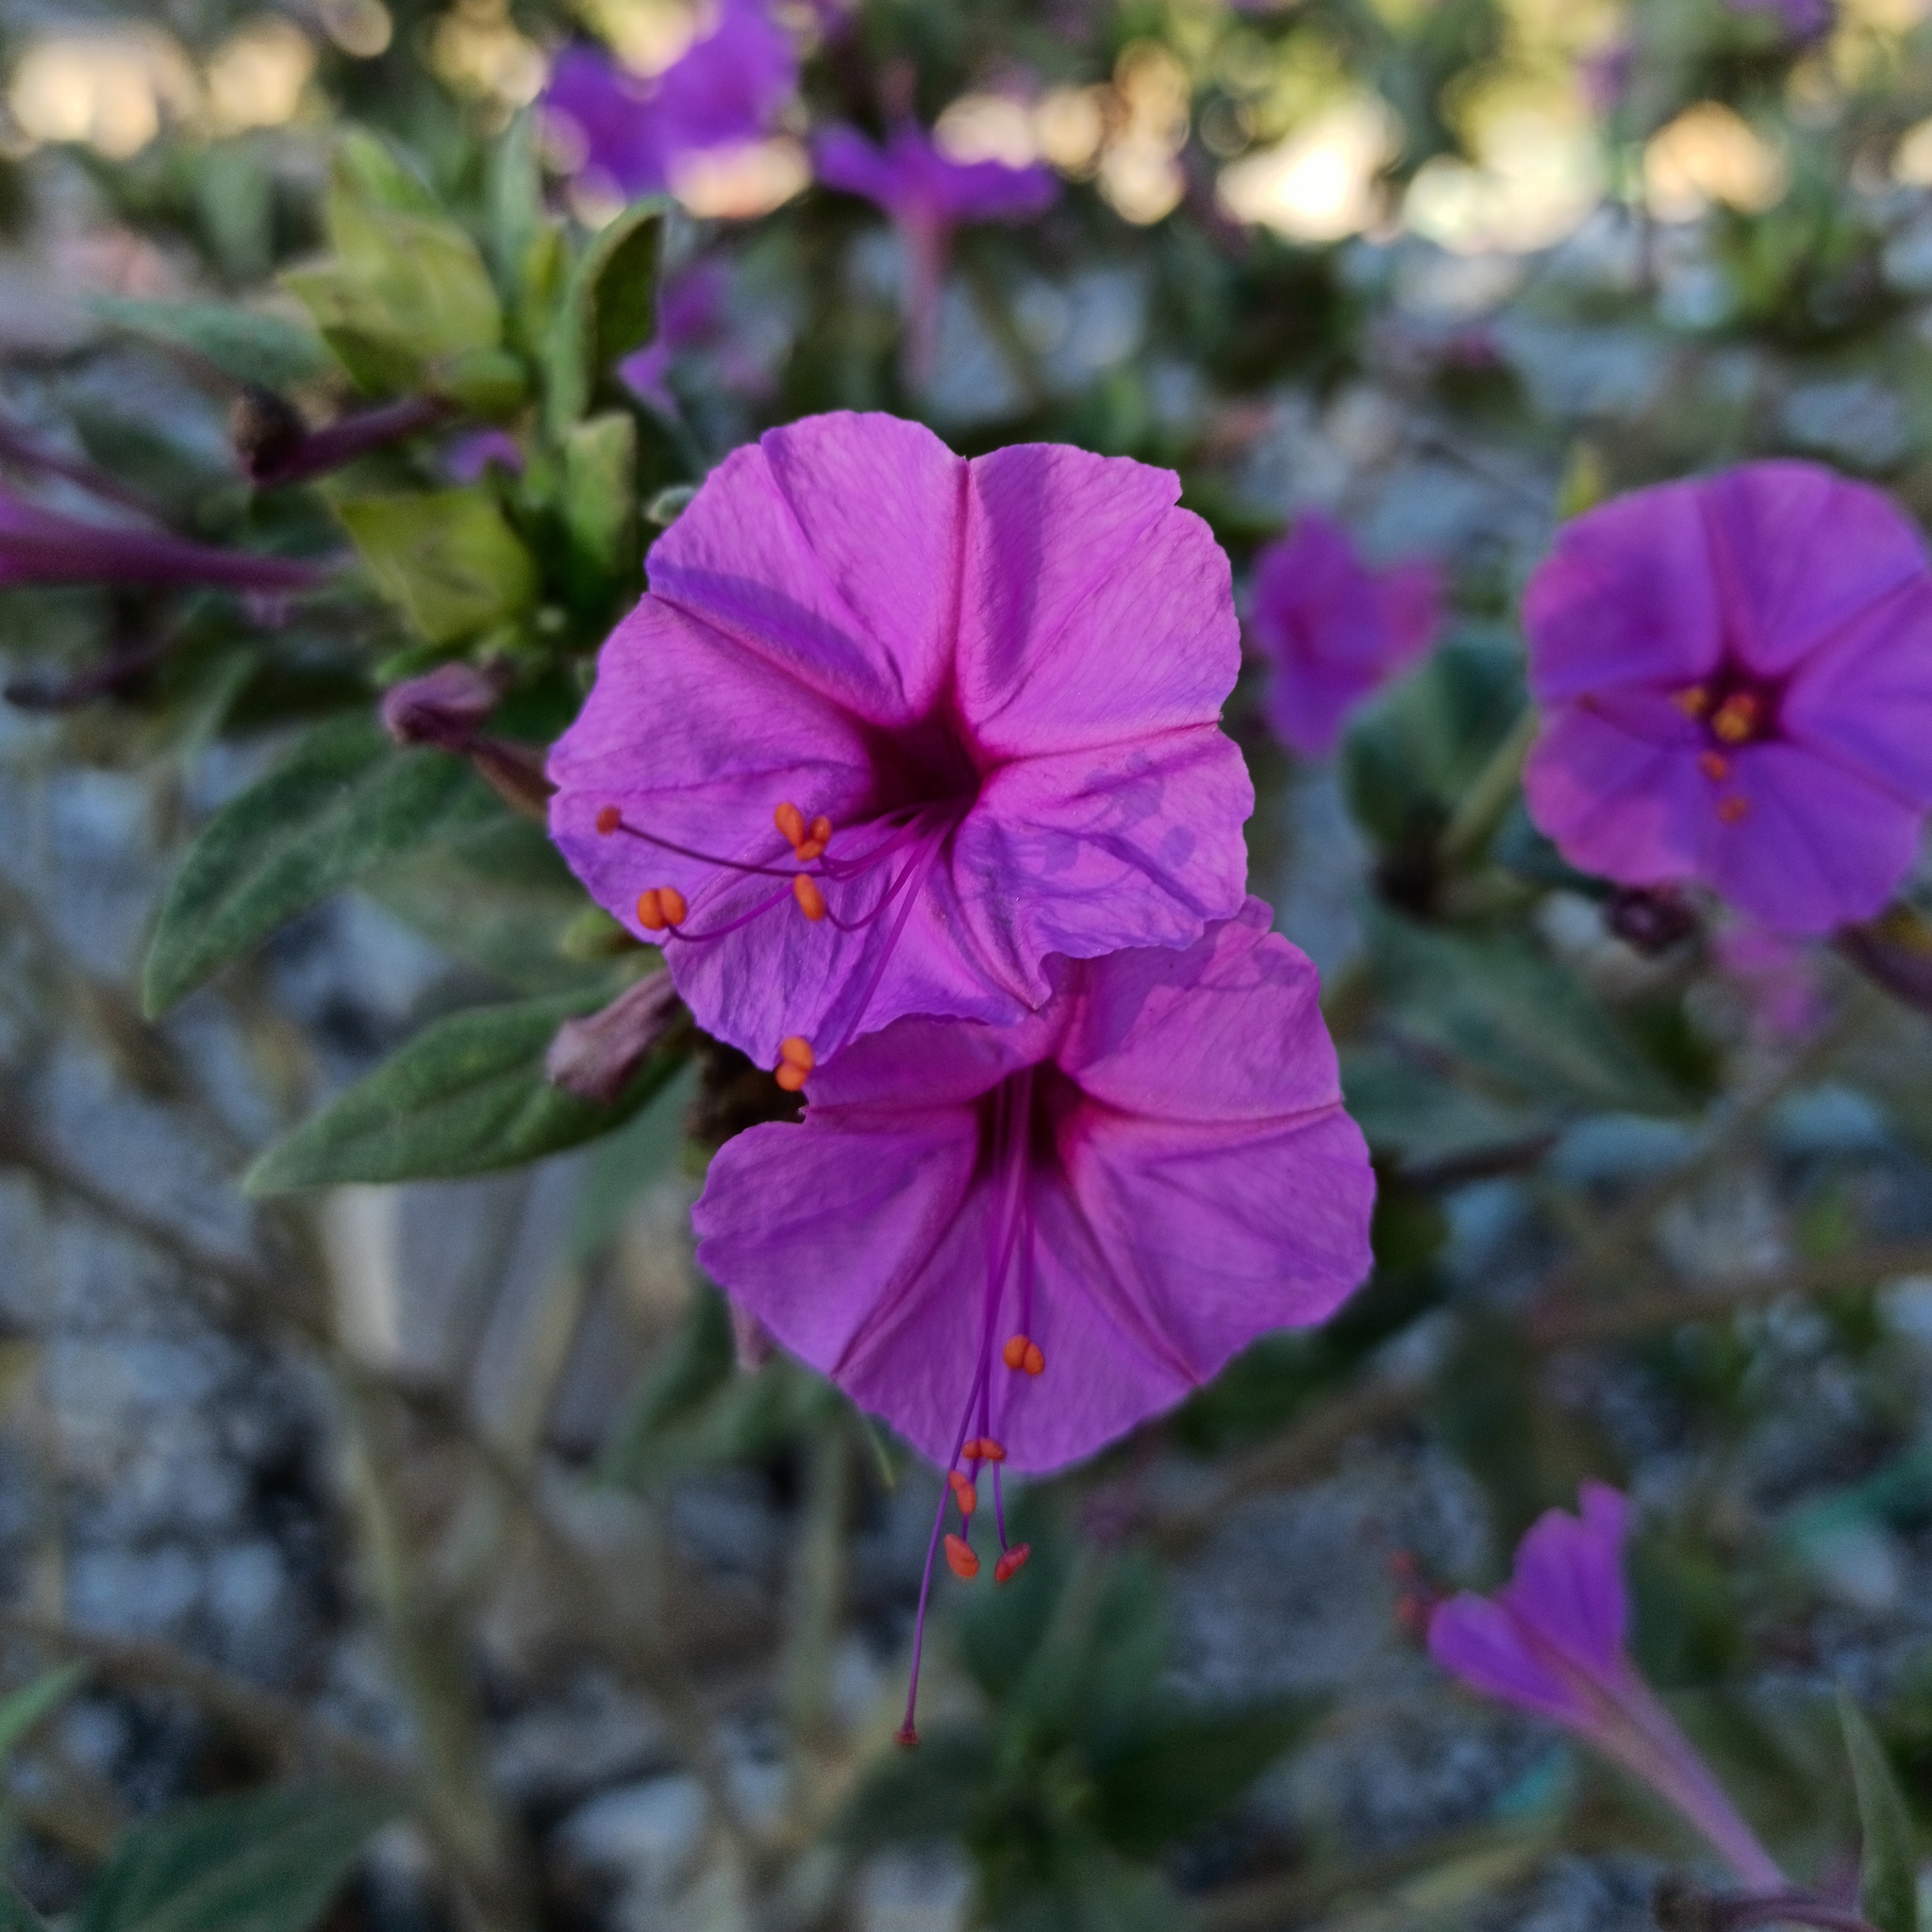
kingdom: Plantae
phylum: Tracheophyta
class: Magnoliopsida
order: Caryophyllales
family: Nyctaginaceae
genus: Mirabilis
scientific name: Mirabilis jalapa
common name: Marvel-of-peru
